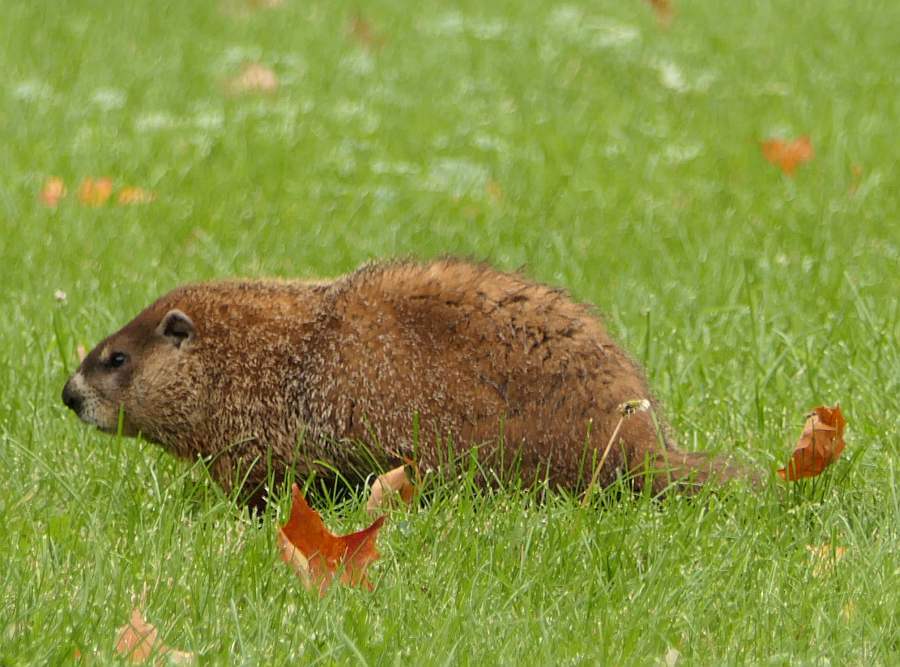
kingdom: Animalia
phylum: Chordata
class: Mammalia
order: Rodentia
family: Sciuridae
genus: Marmota
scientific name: Marmota monax
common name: Groundhog
